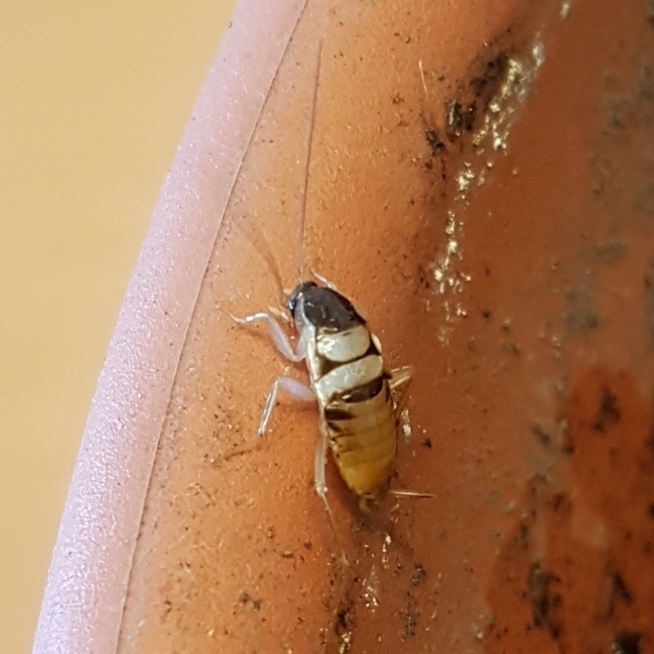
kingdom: Animalia
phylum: Arthropoda
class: Insecta
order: Blattodea
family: Ectobiidae
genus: Supella
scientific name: Supella longipalpa
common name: Brown-banded cockroach
